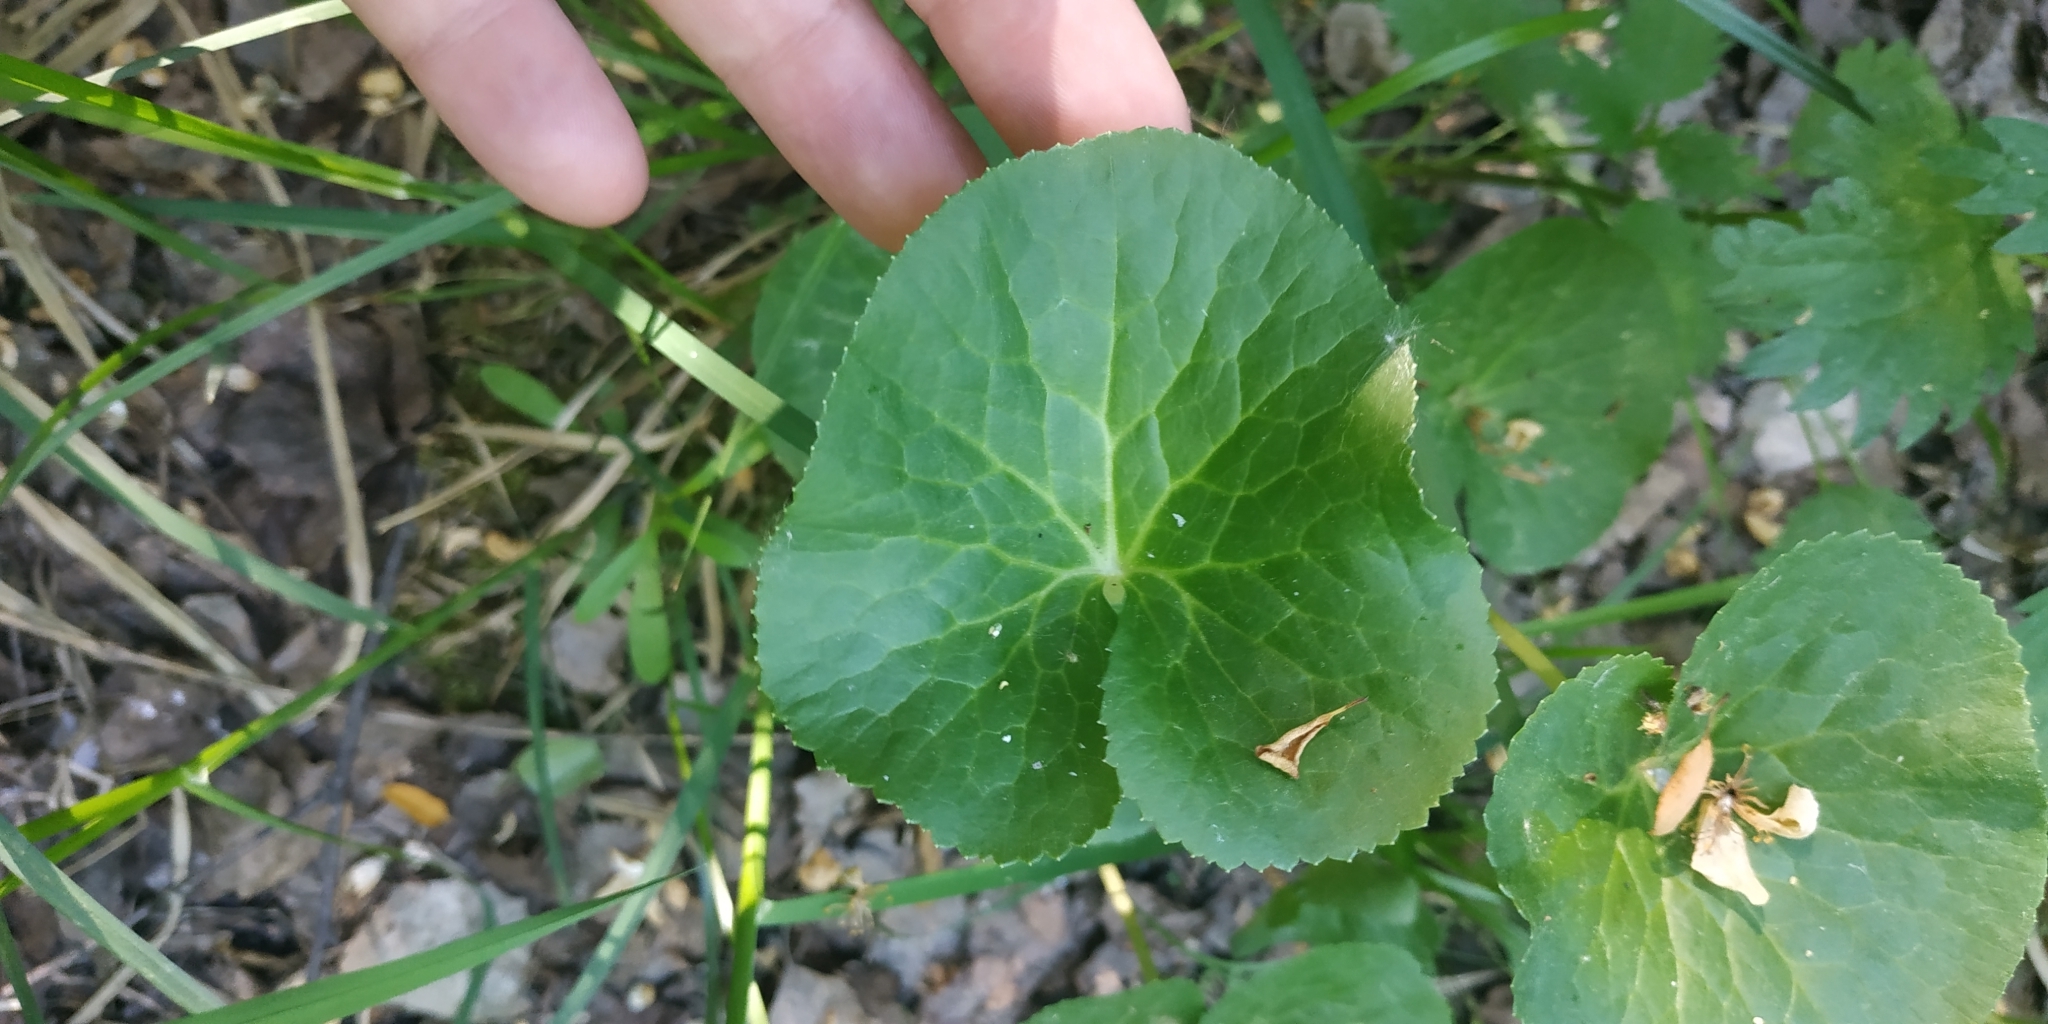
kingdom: Plantae
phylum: Tracheophyta
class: Magnoliopsida
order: Ranunculales
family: Ranunculaceae
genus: Caltha
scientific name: Caltha palustris
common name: Marsh marigold
